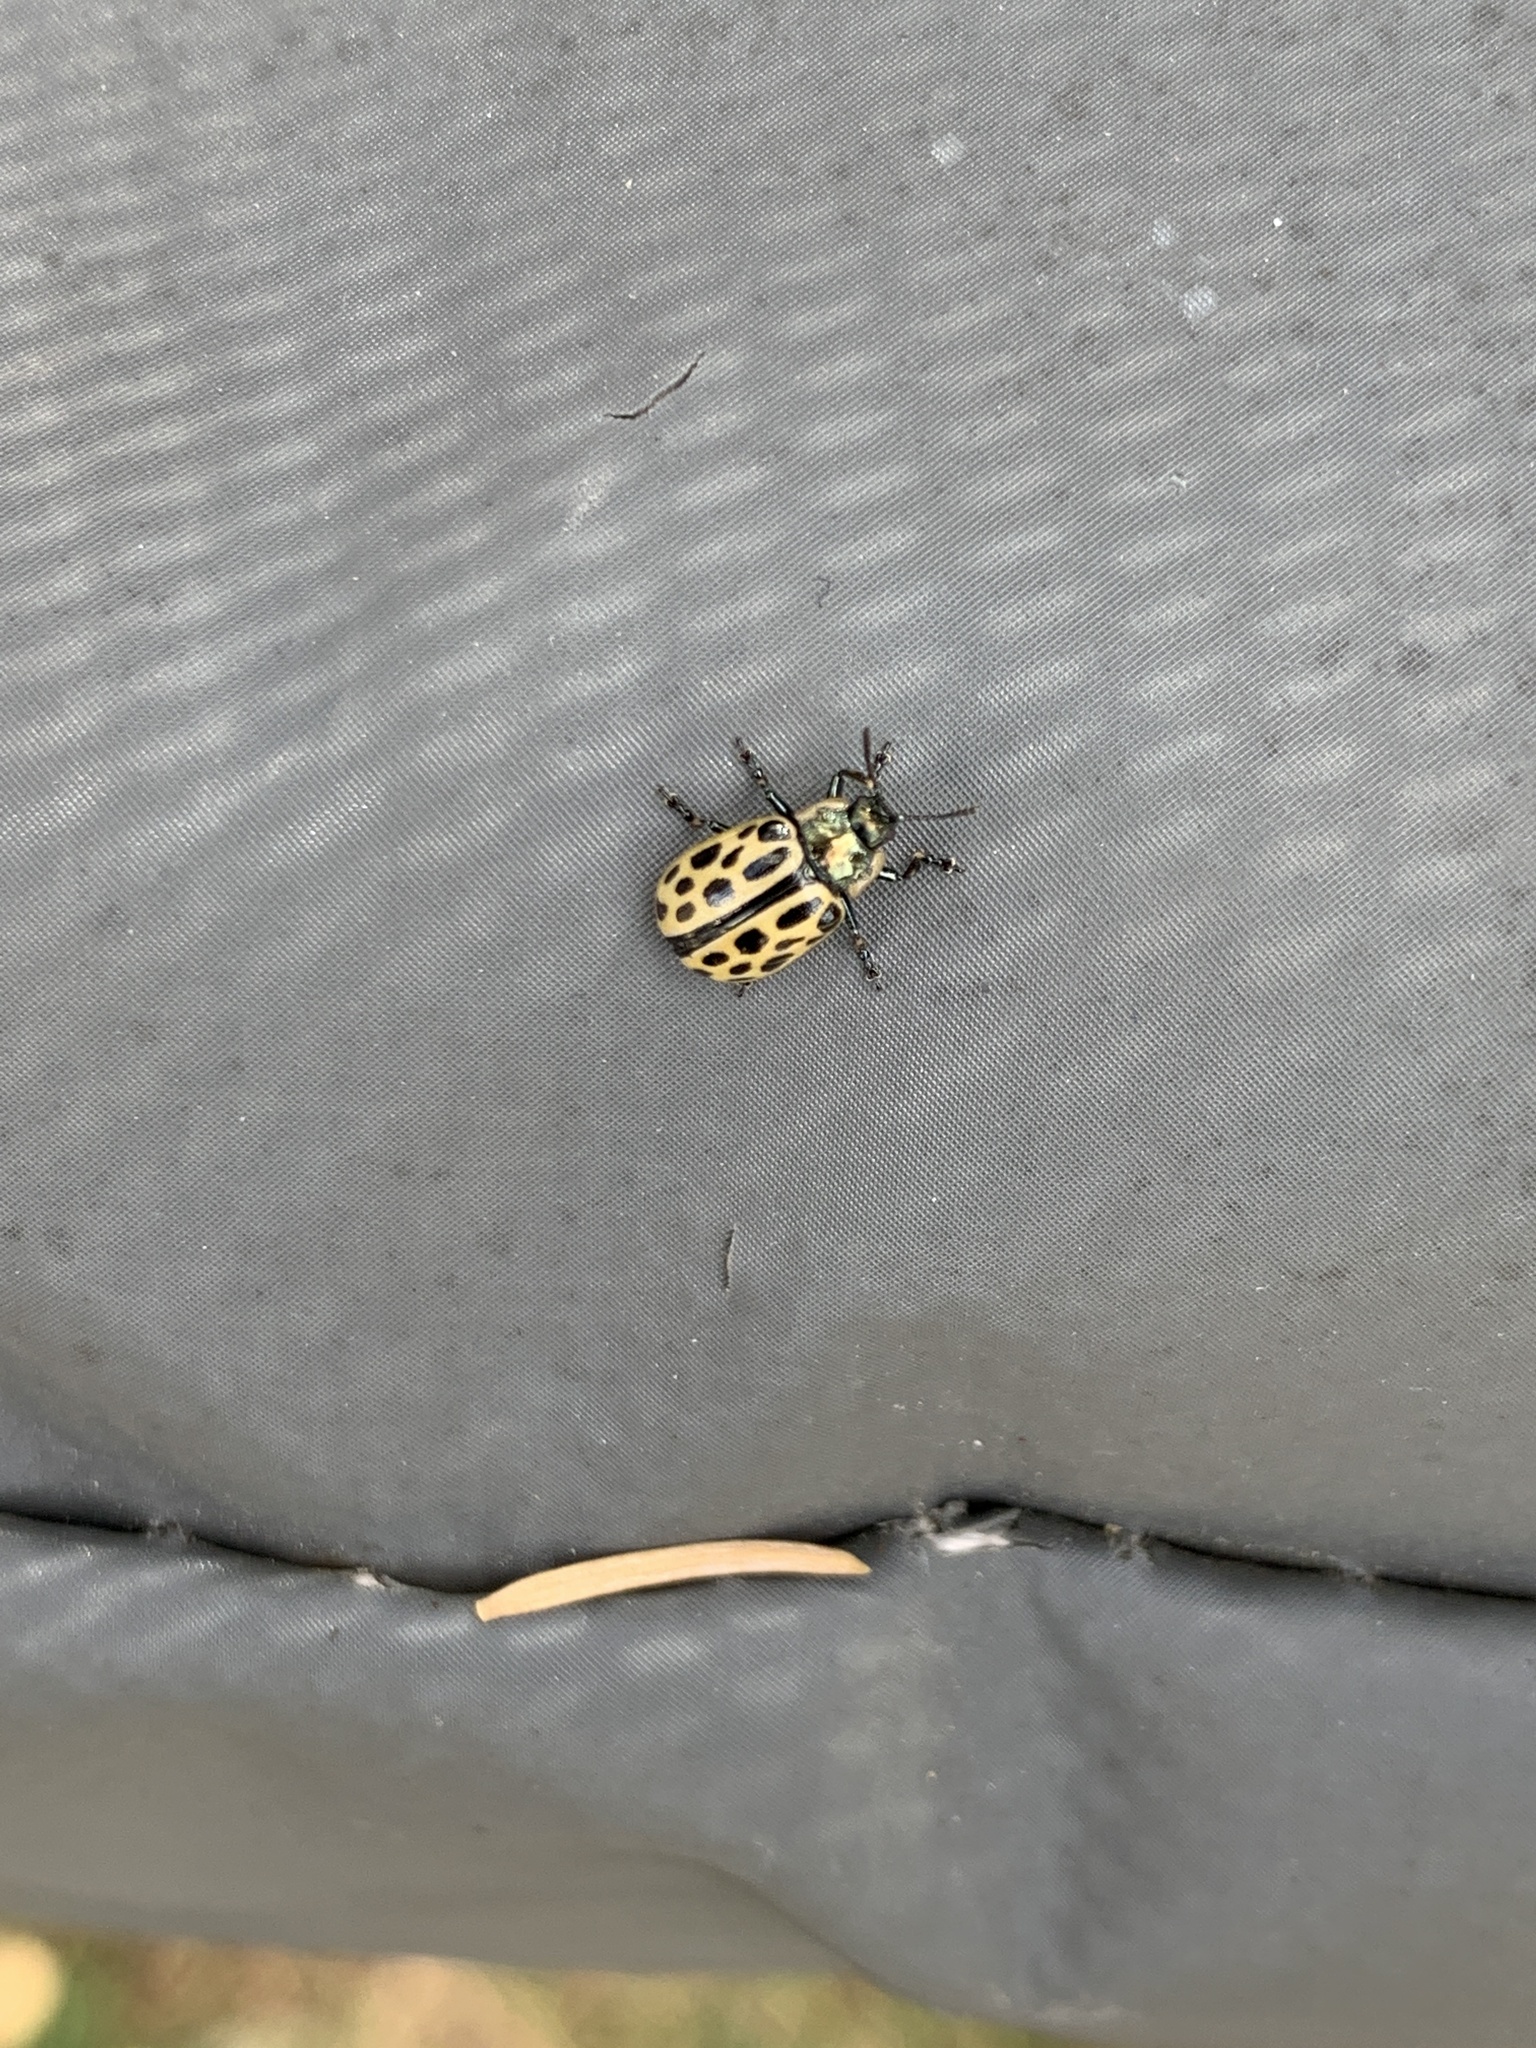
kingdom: Animalia
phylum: Arthropoda
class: Insecta
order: Coleoptera
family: Chrysomelidae
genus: Chrysomela
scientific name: Chrysomela vigintipunctata
